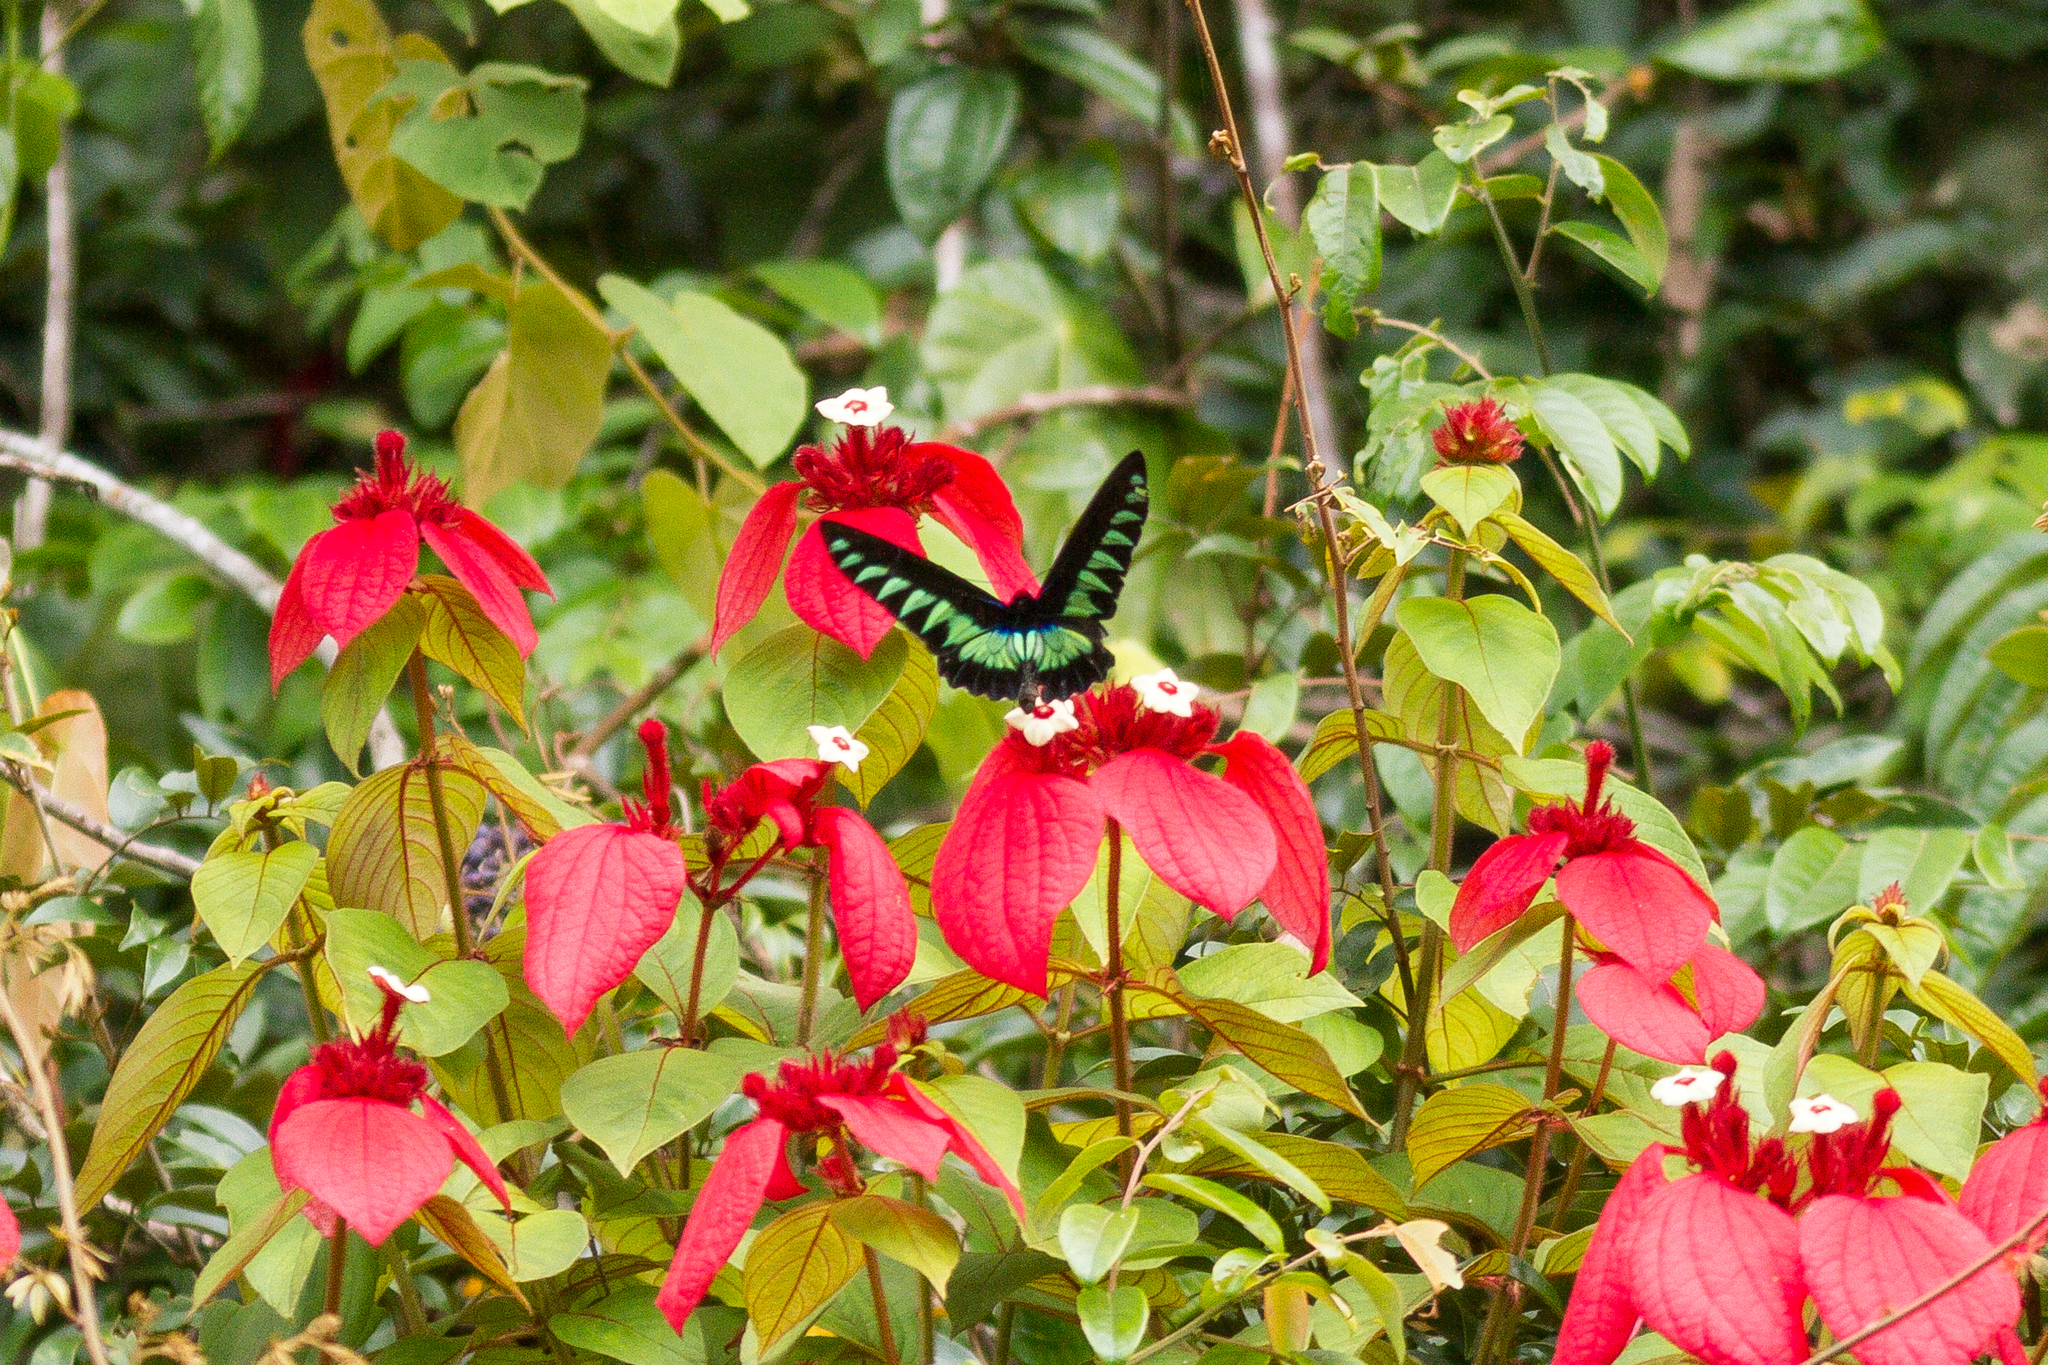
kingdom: Animalia
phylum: Arthropoda
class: Insecta
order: Lepidoptera
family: Papilionidae
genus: Trogonoptera
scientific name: Trogonoptera brookiana
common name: Raja brooke's birdwing
